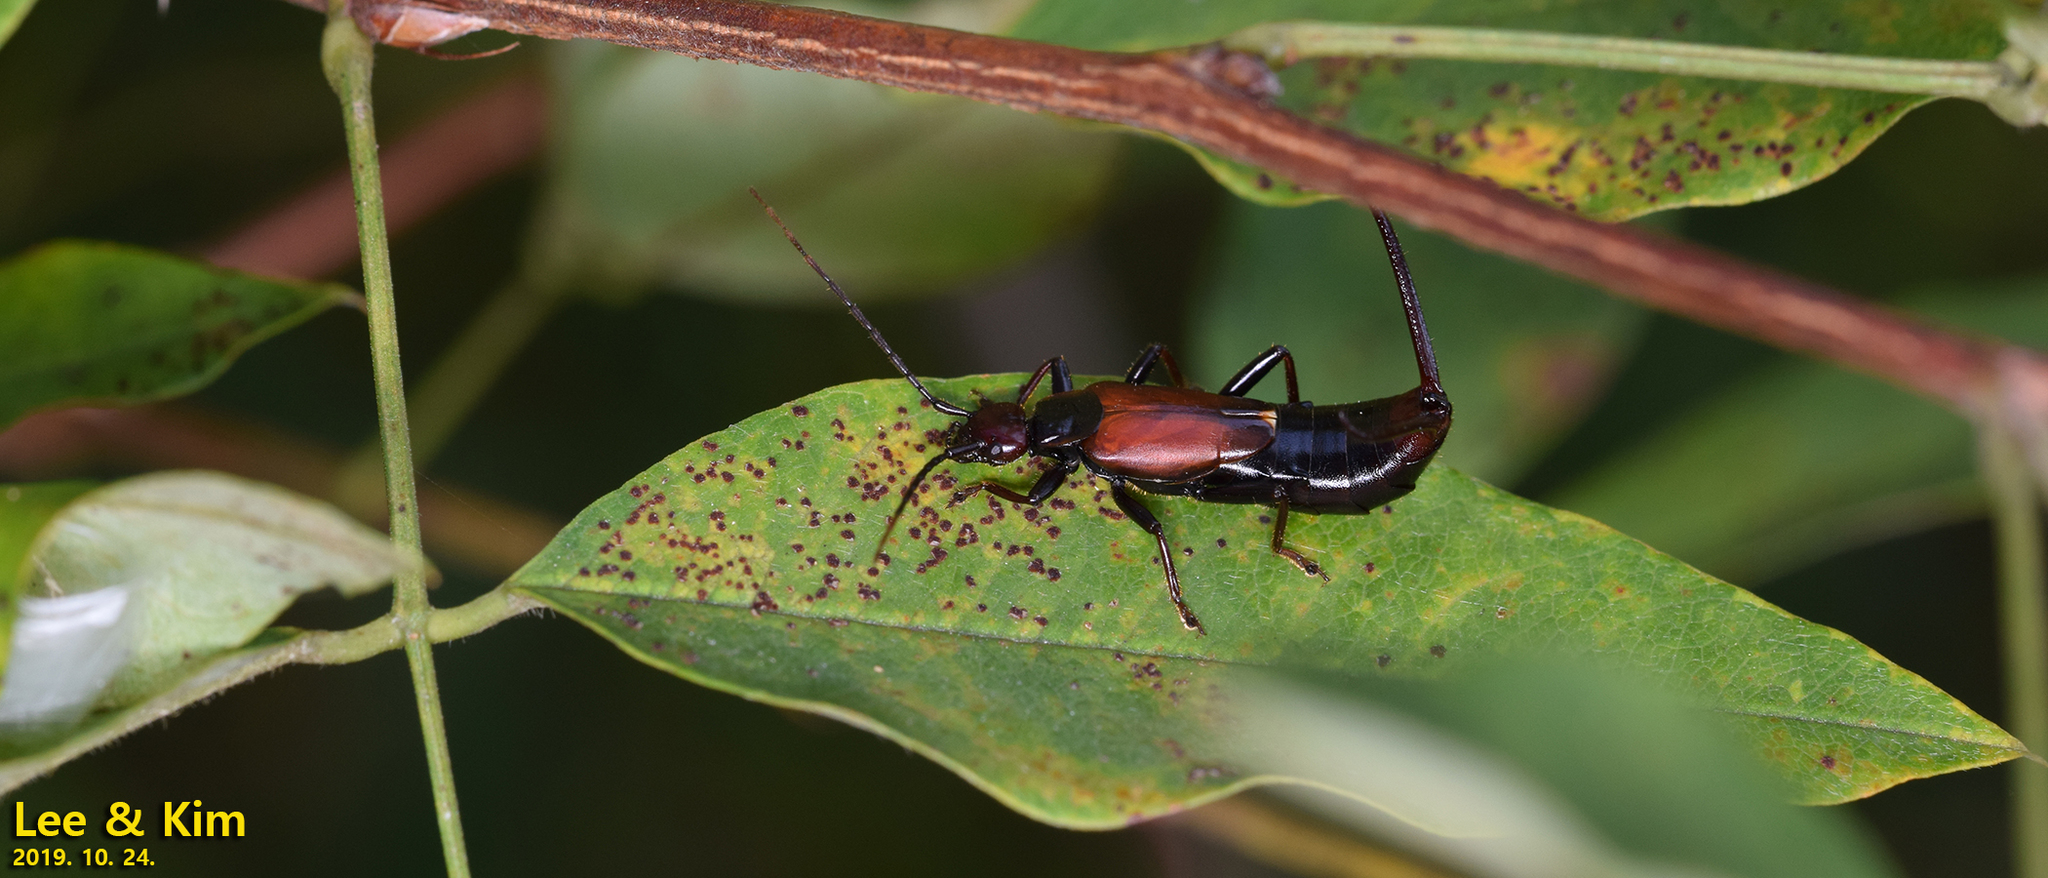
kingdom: Animalia
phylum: Arthropoda
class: Insecta
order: Dermaptera
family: Forficulidae
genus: Timomenus
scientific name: Timomenus komarovi
